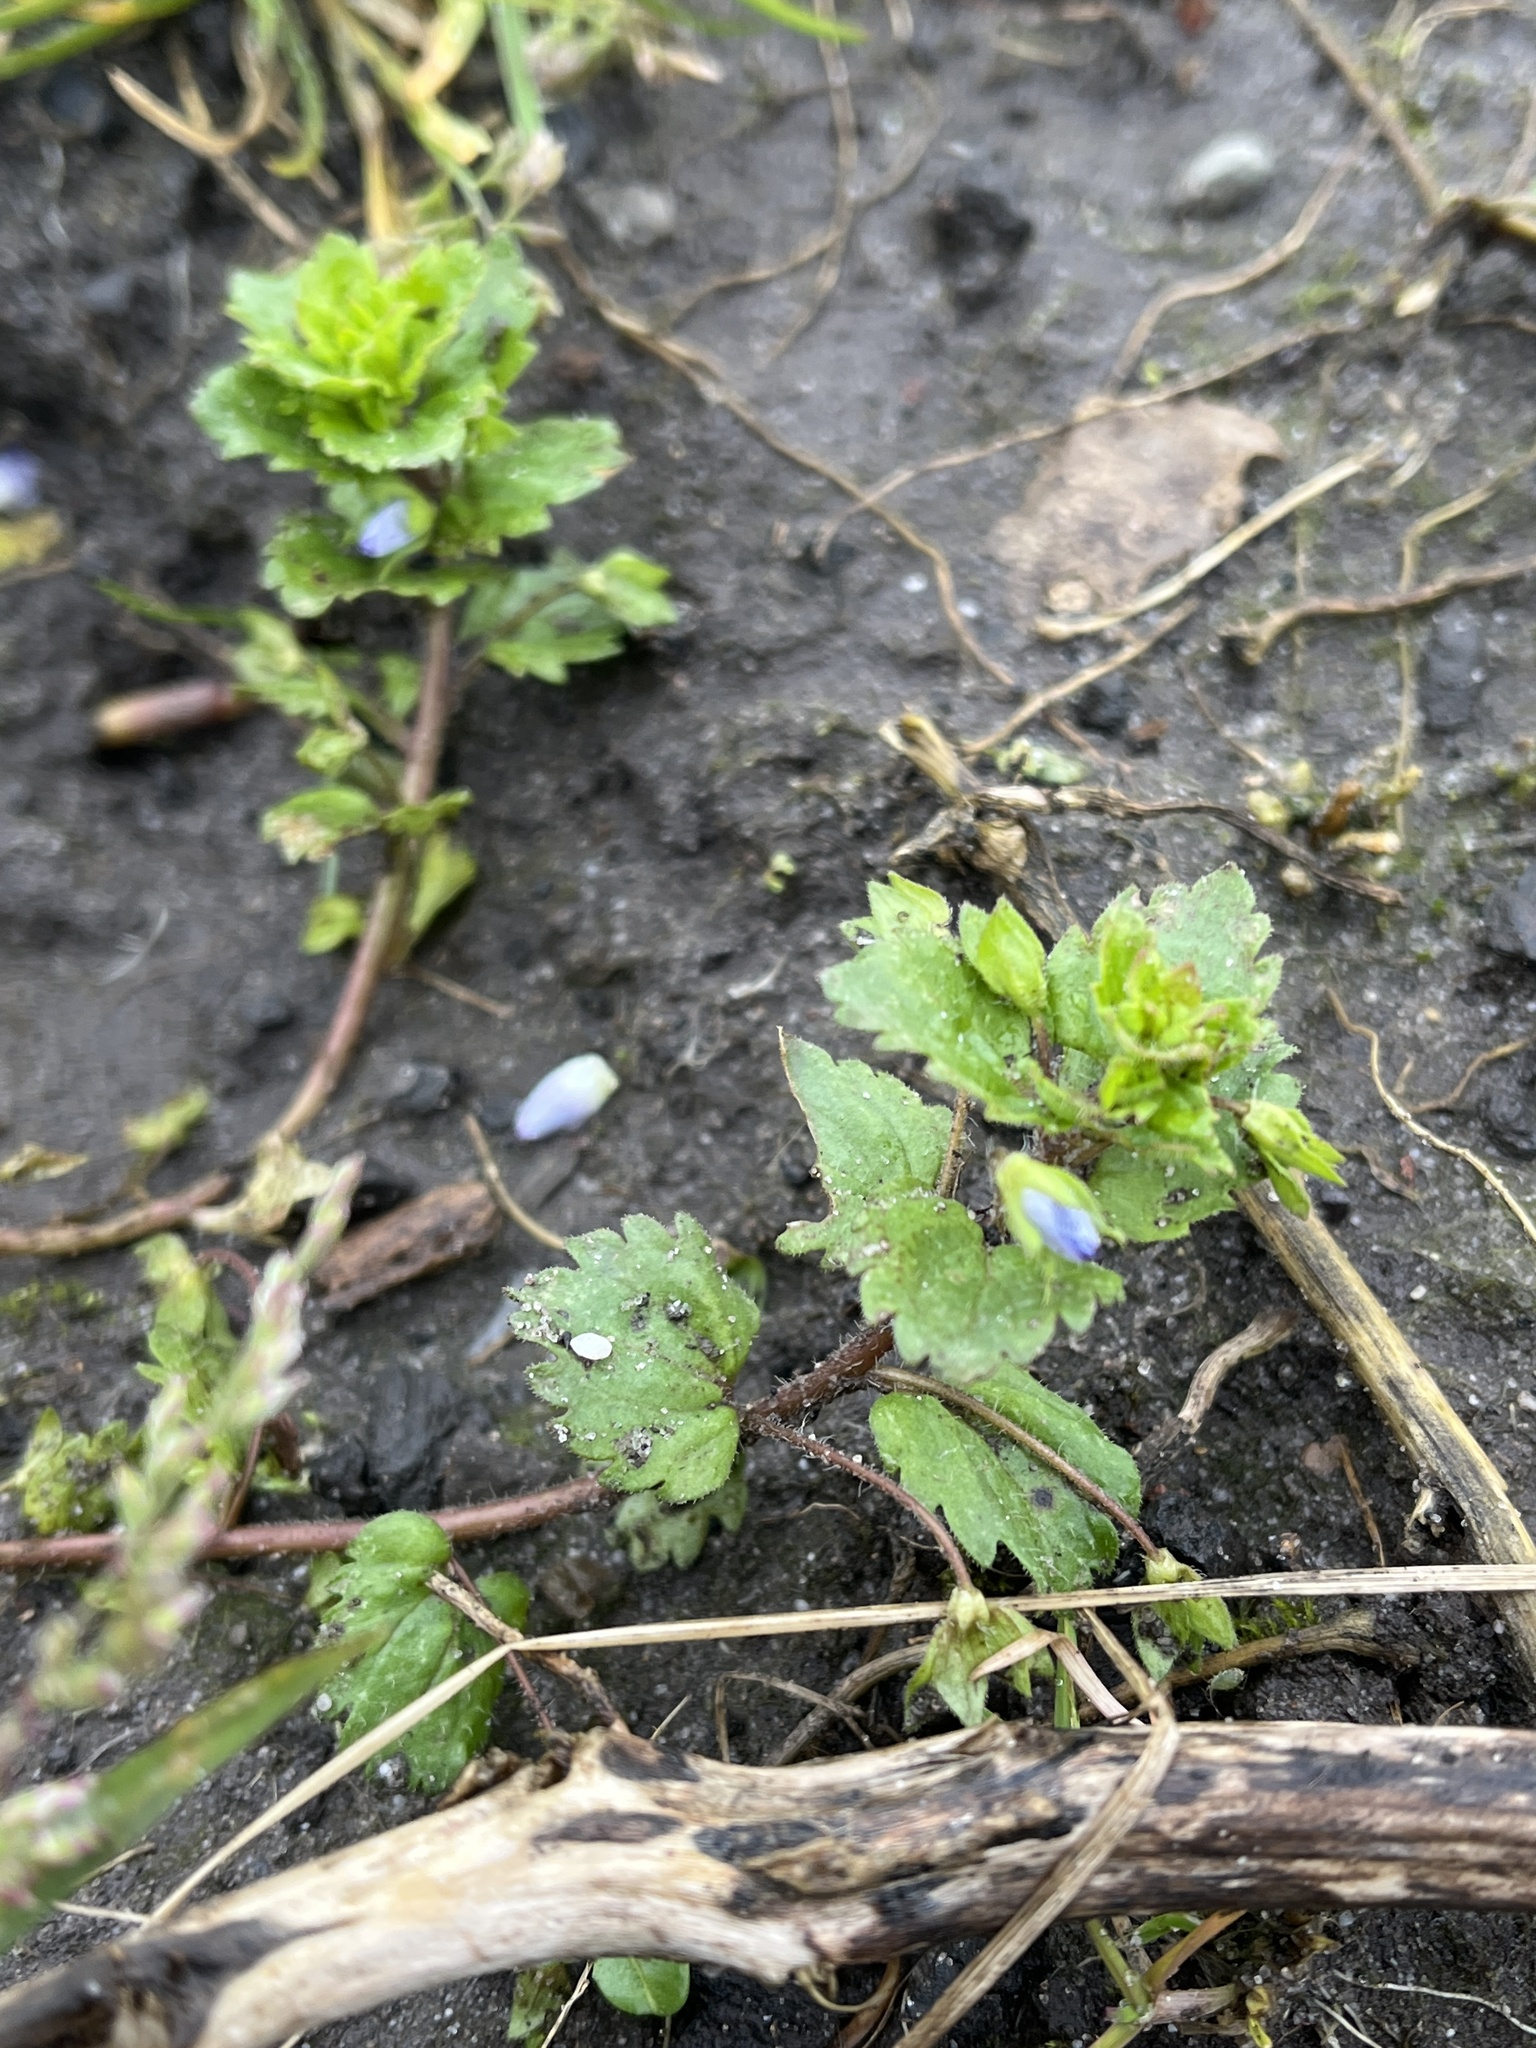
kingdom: Plantae
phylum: Tracheophyta
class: Magnoliopsida
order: Lamiales
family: Plantaginaceae
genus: Veronica
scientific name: Veronica persica
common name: Common field-speedwell
